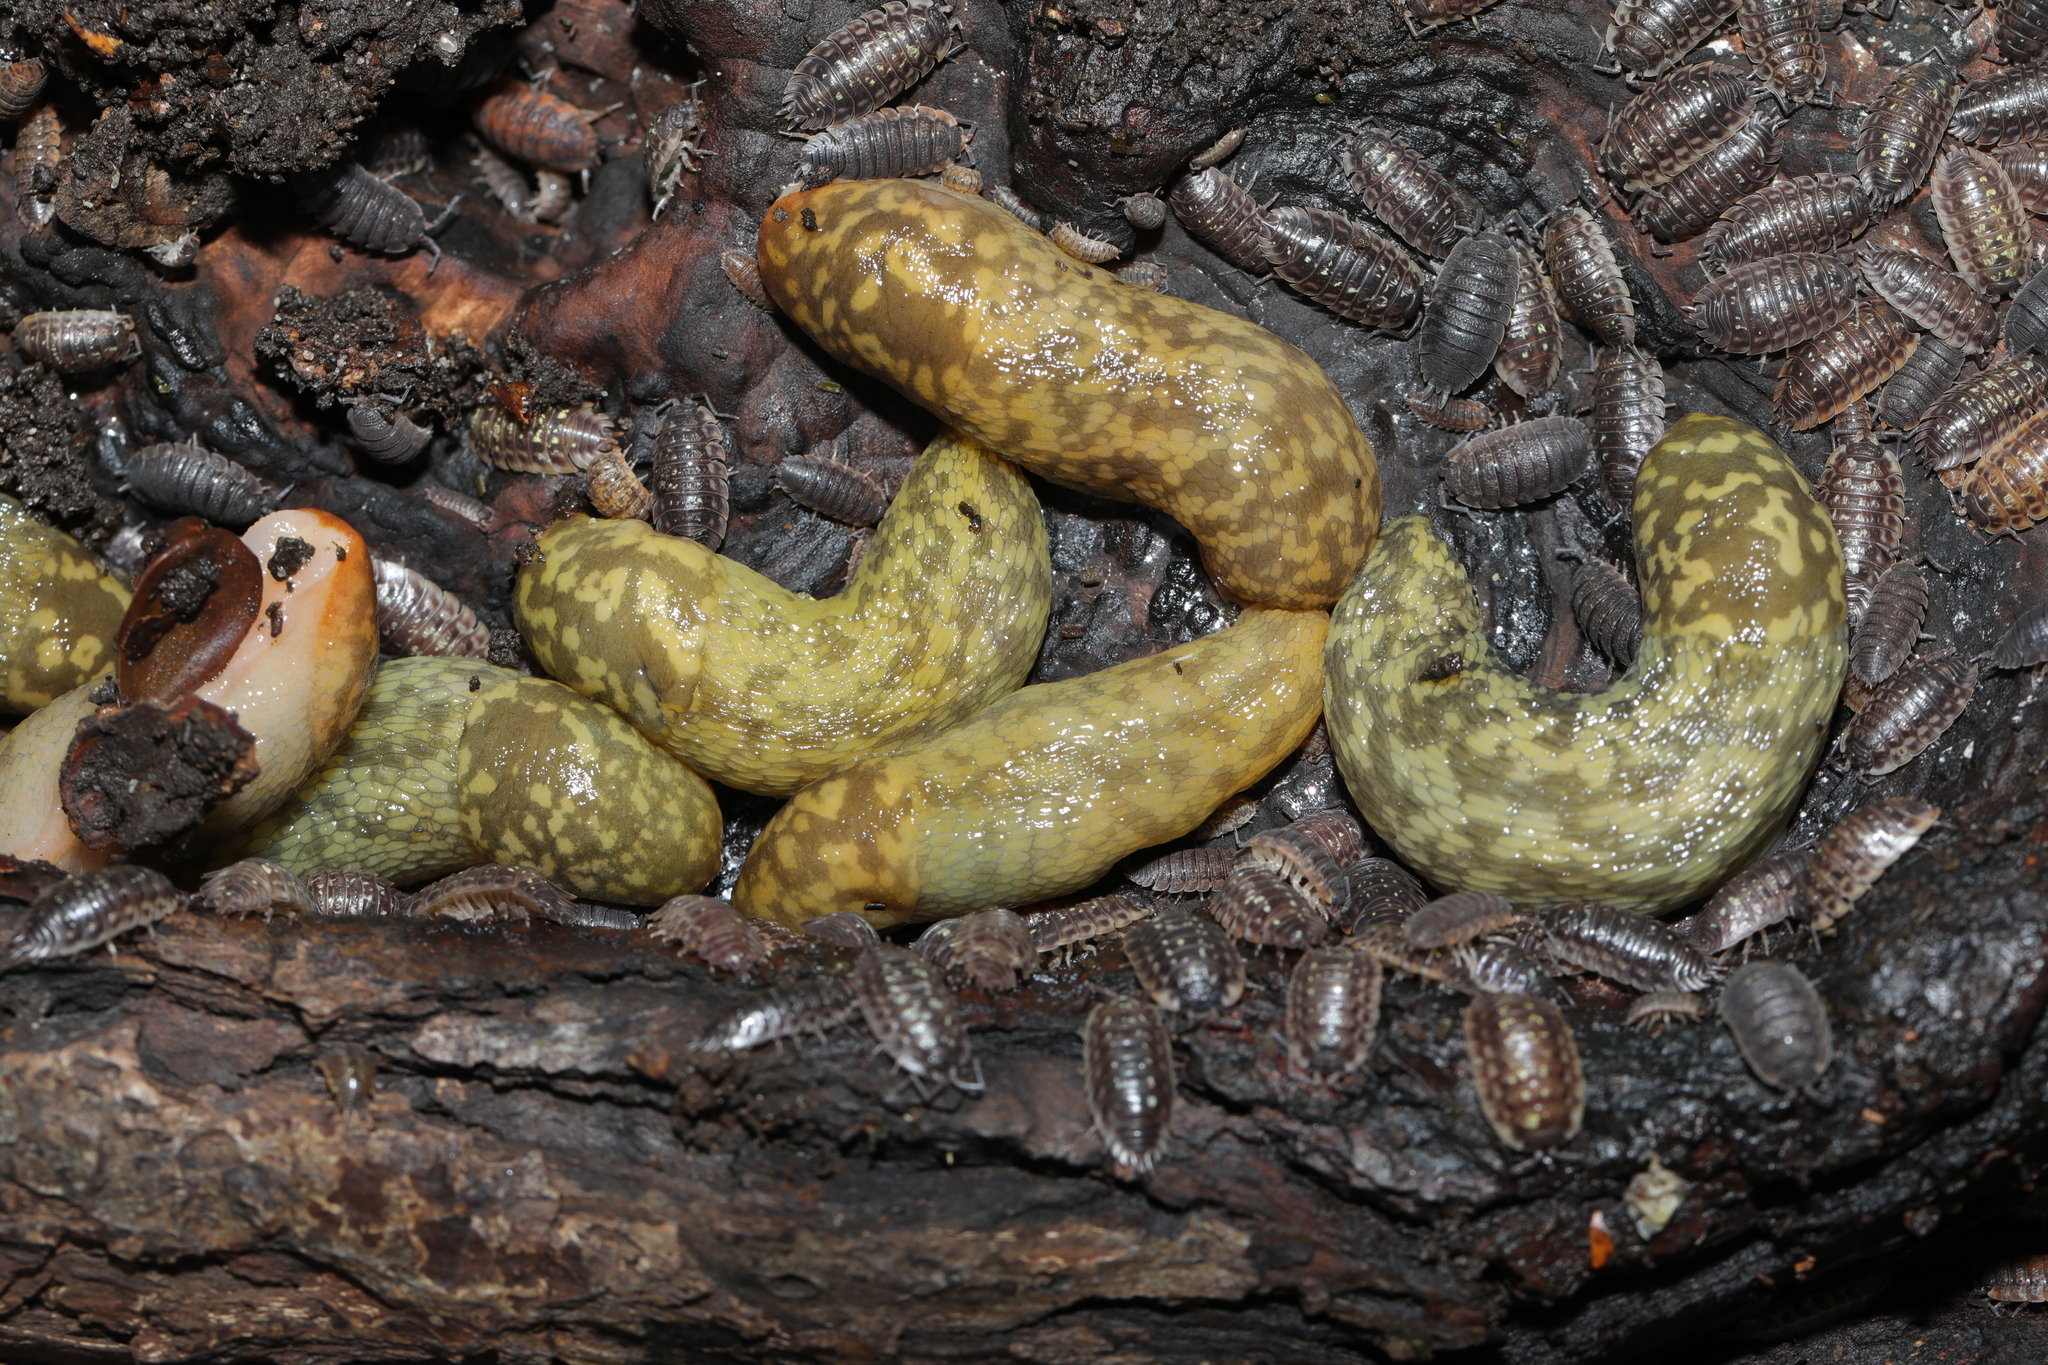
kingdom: Animalia
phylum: Mollusca
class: Gastropoda
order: Stylommatophora
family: Limacidae
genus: Limacus
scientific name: Limacus maculatus
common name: Irish yellow slug
